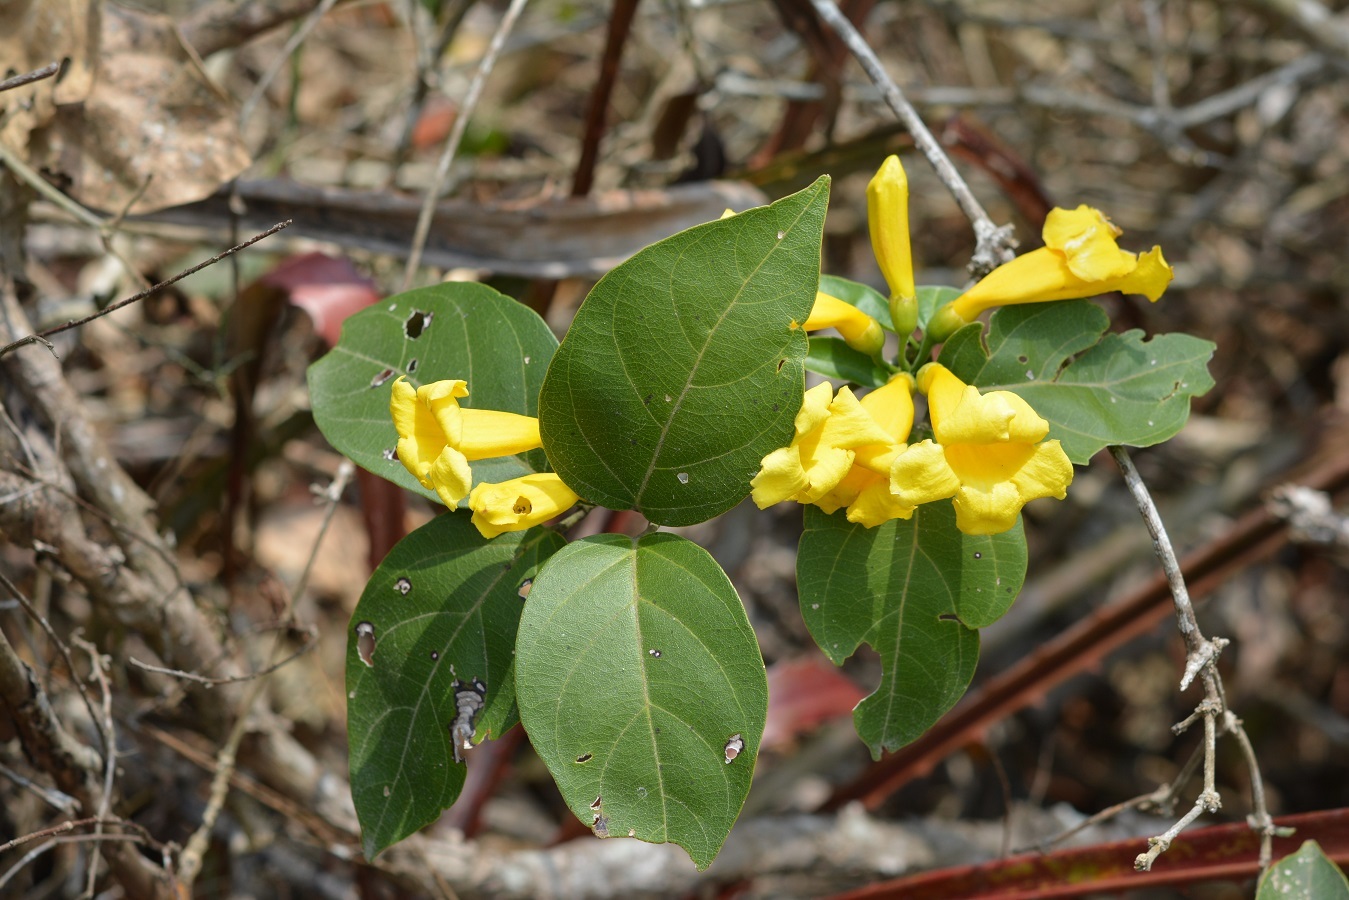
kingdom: Plantae
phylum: Tracheophyta
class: Magnoliopsida
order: Lamiales
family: Bignoniaceae
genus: Anemopaegma
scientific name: Anemopaegma chrysanthum
